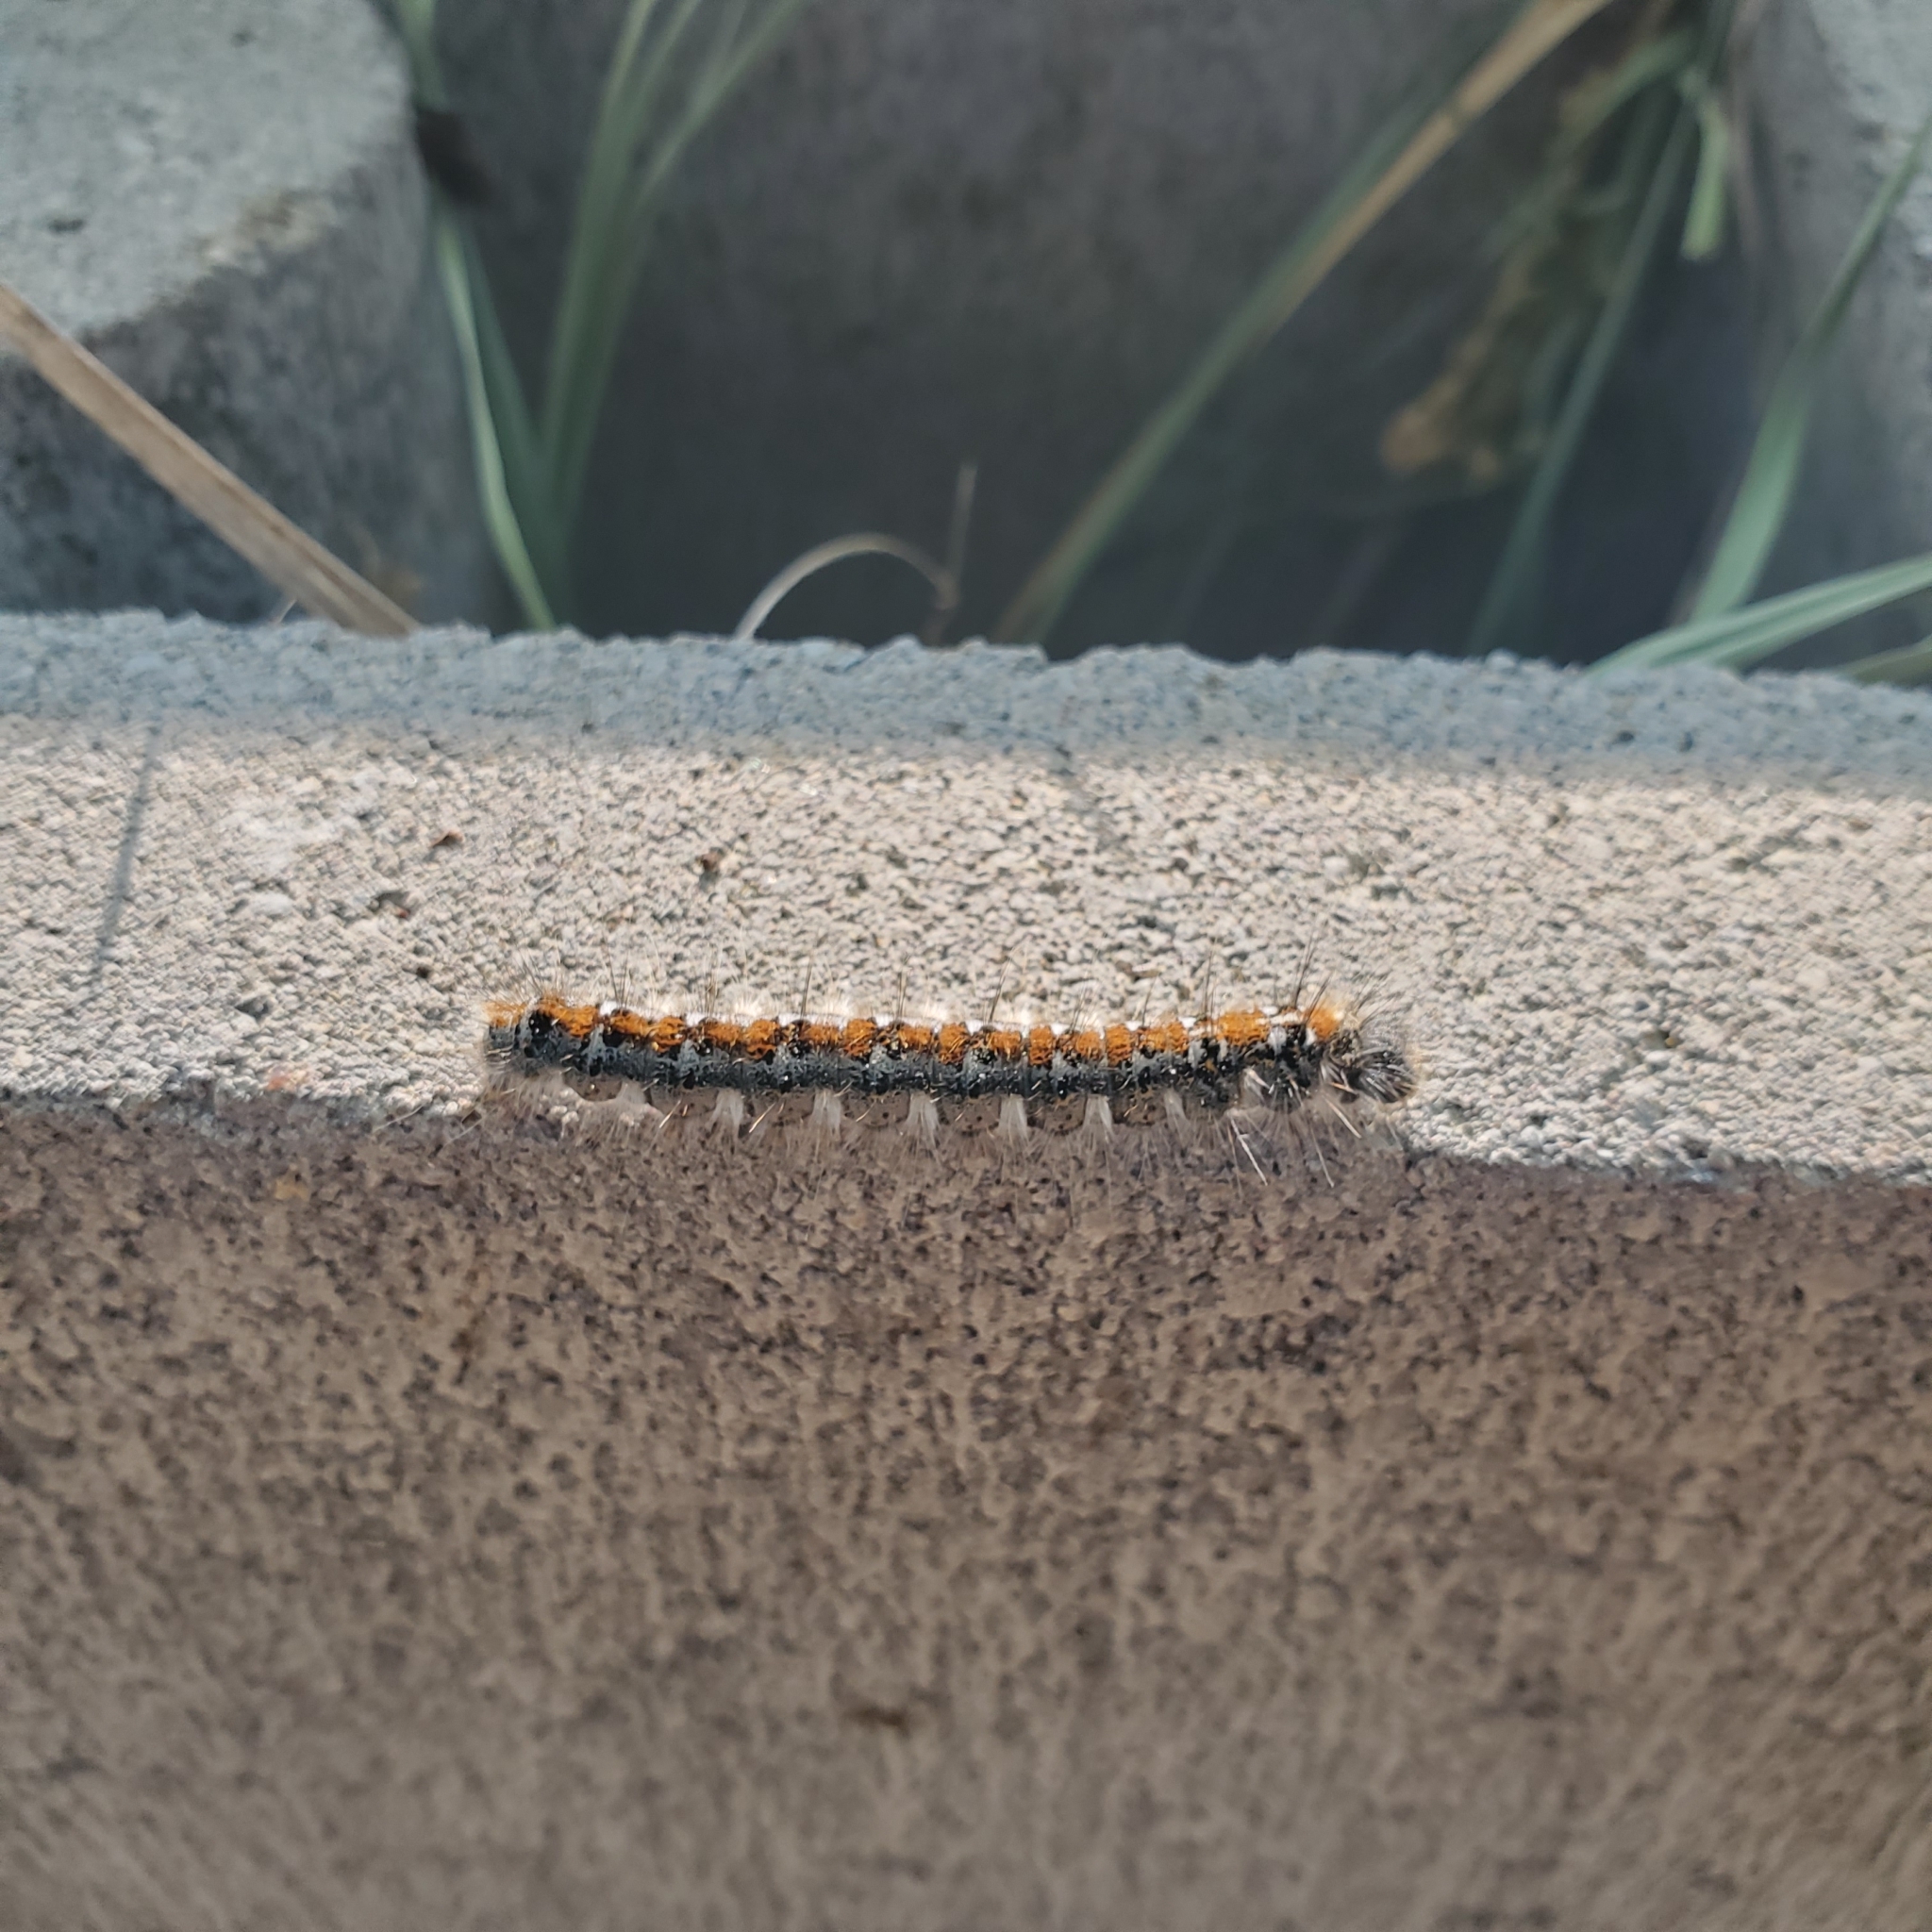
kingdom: Animalia
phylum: Arthropoda
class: Insecta
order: Lepidoptera
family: Lasiocampidae
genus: Malacosoma
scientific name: Malacosoma constricta
